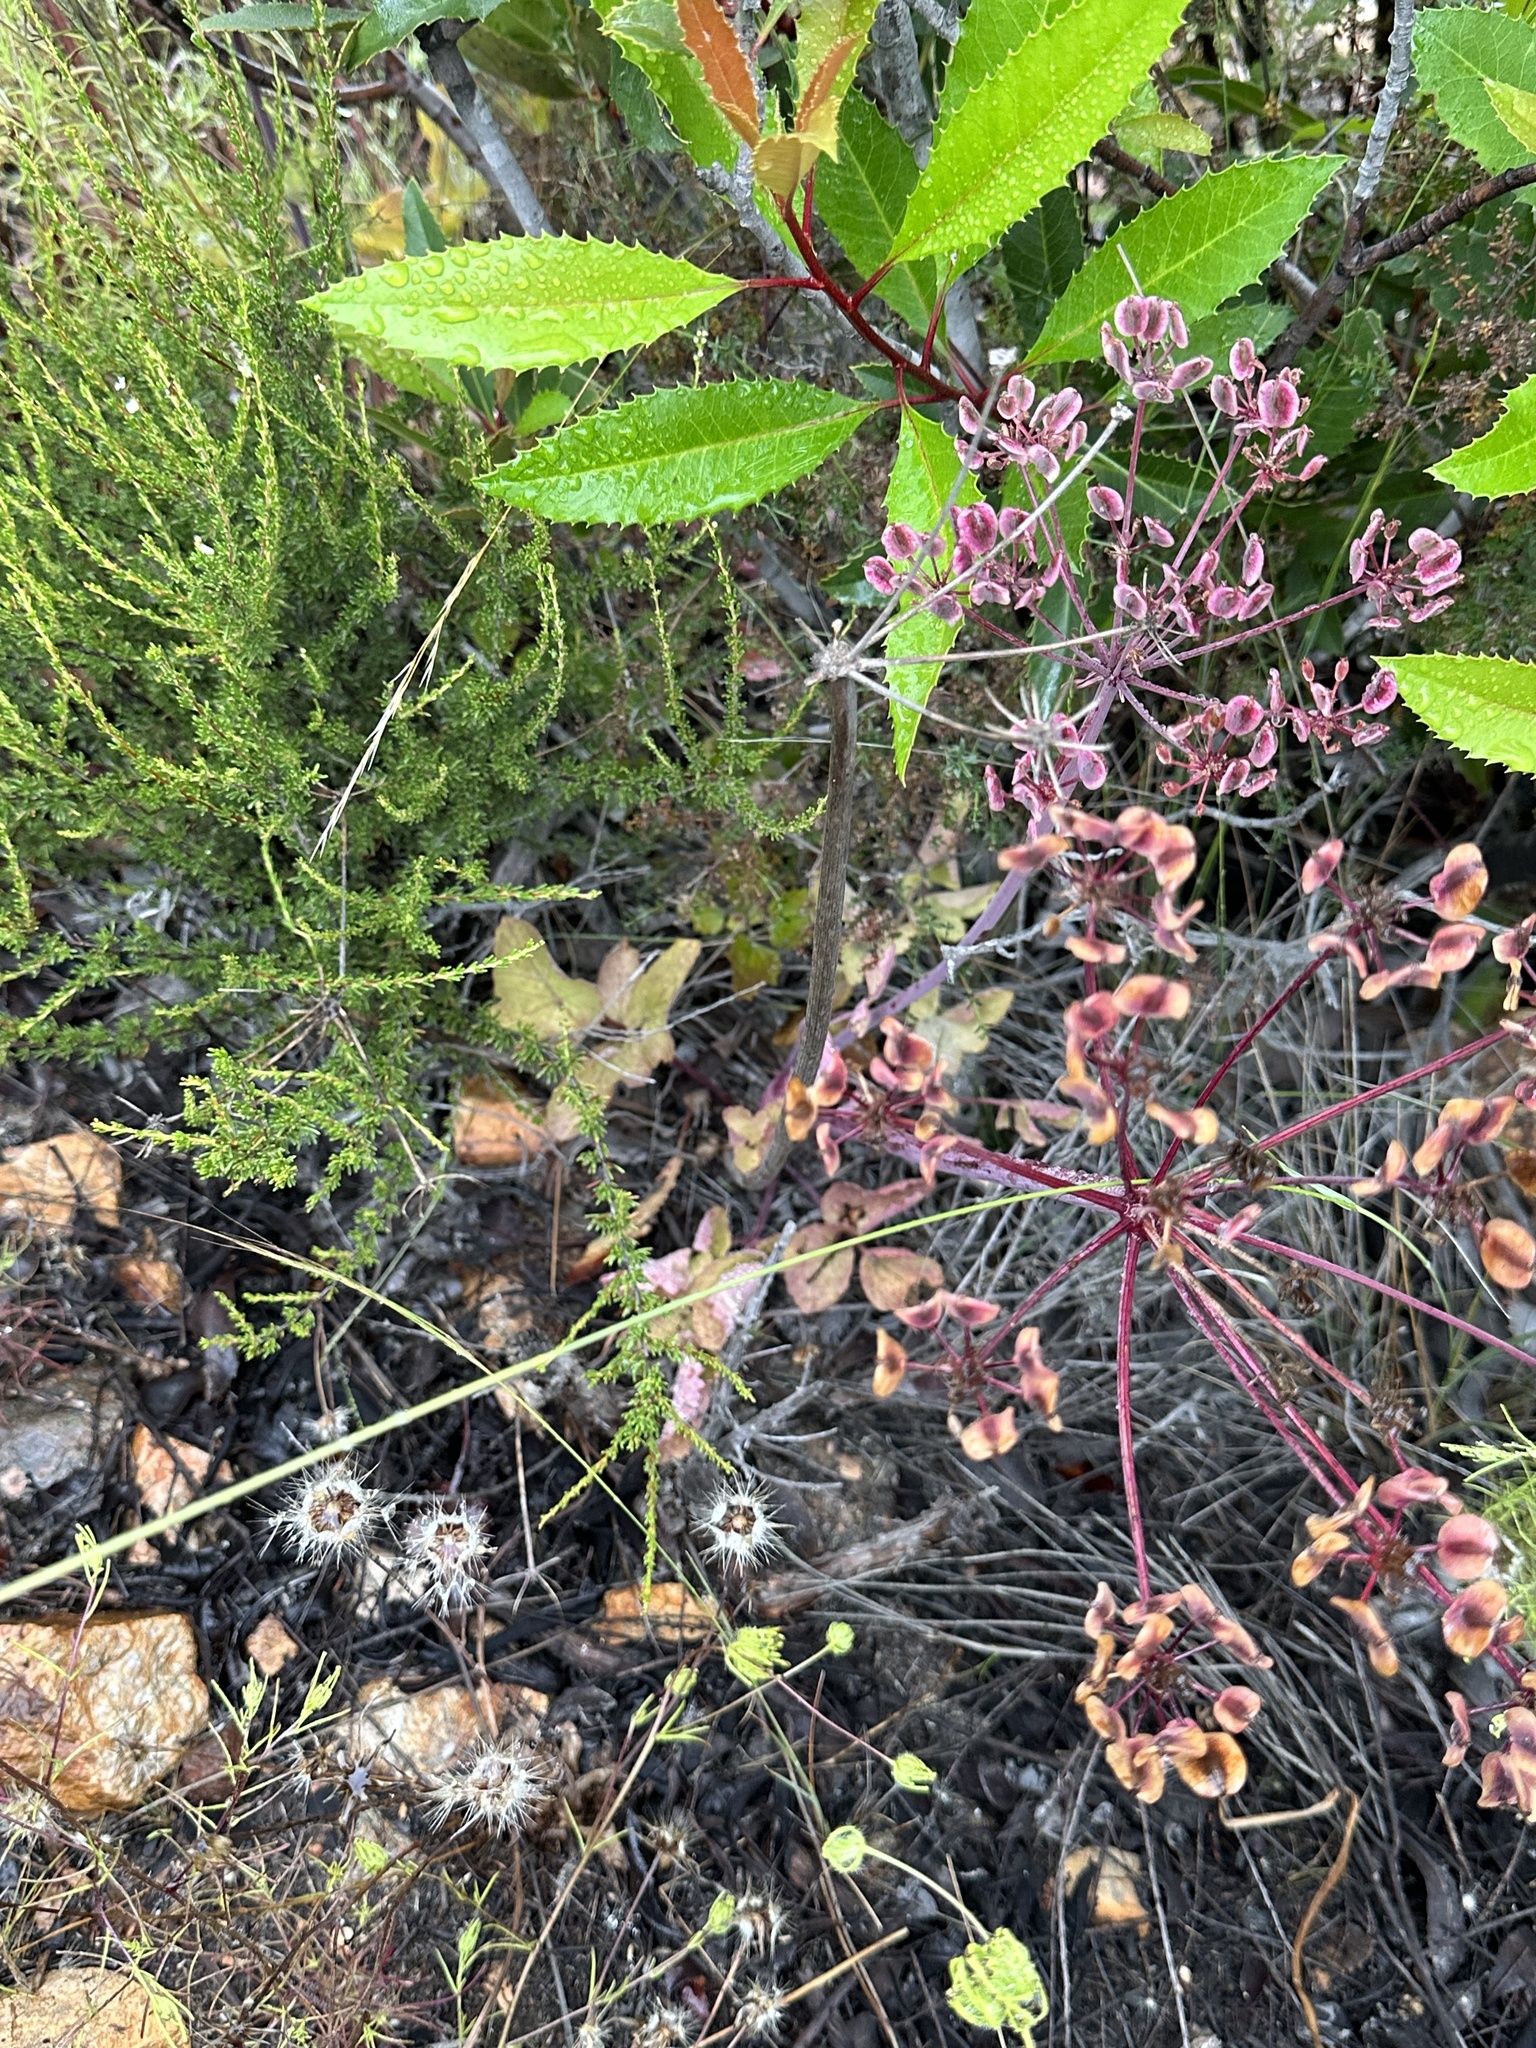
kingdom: Plantae
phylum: Tracheophyta
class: Magnoliopsida
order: Apiales
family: Apiaceae
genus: Lomatium
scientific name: Lomatium lucidum
